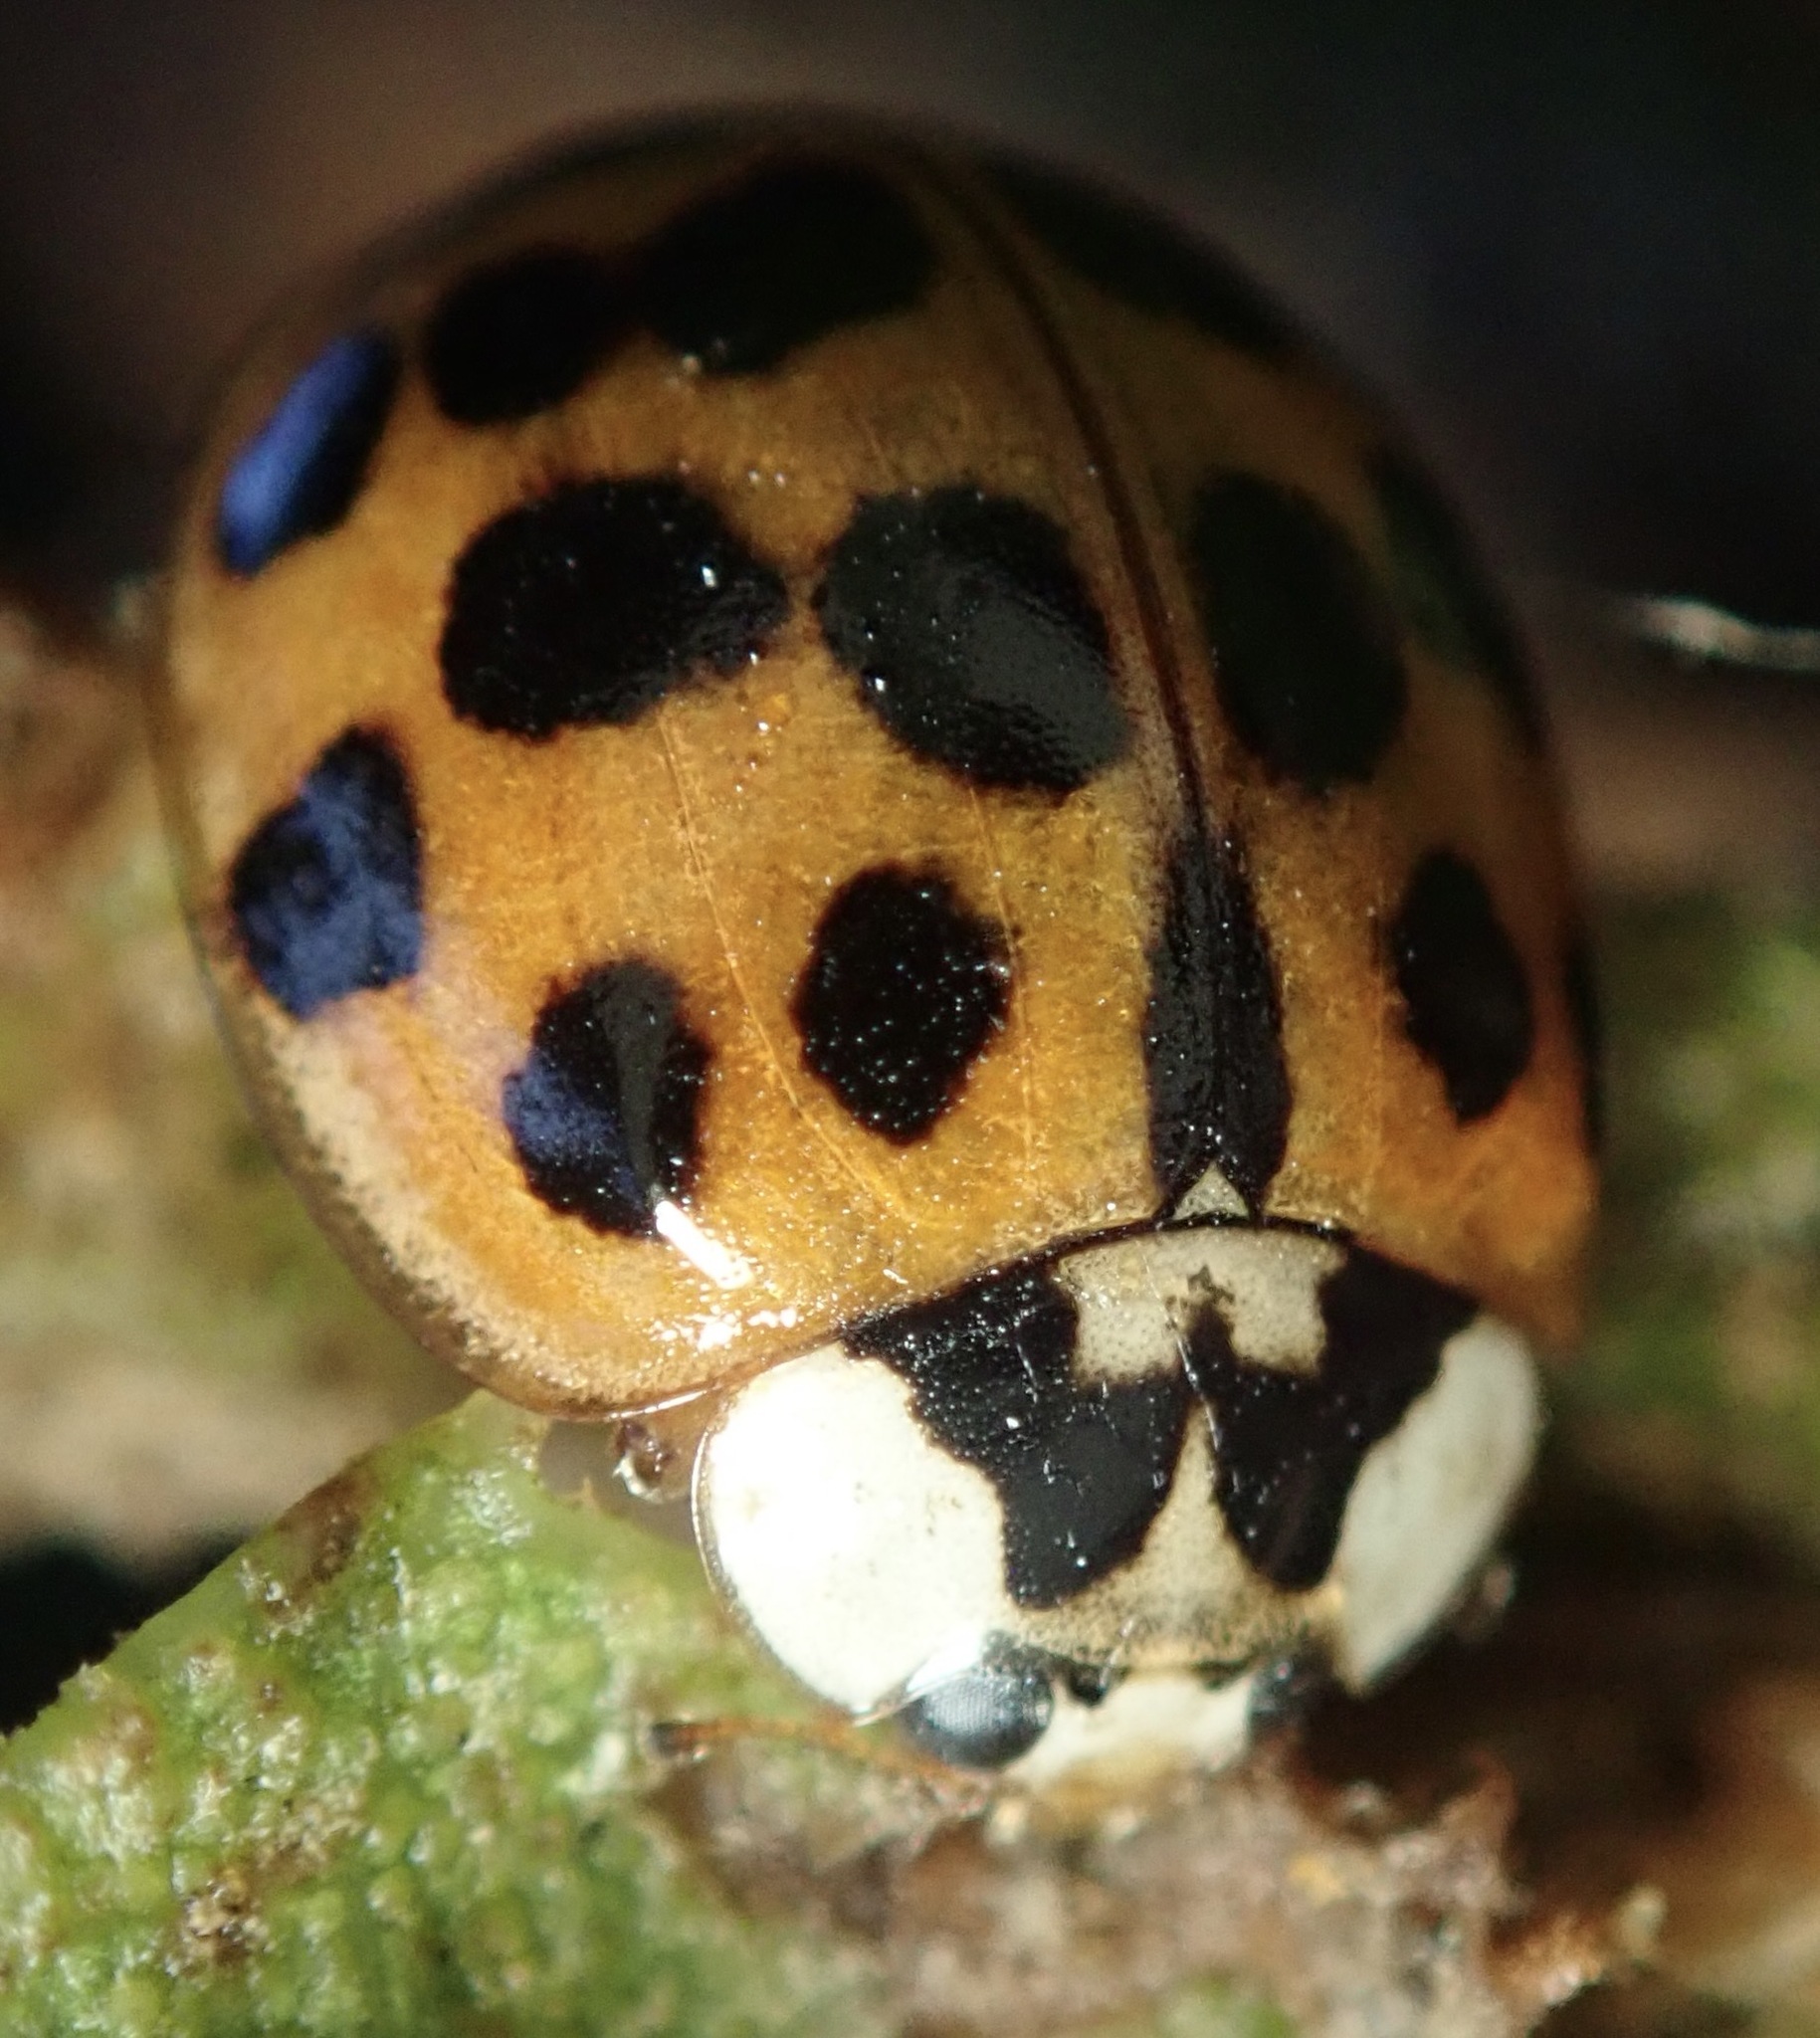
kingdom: Animalia
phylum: Arthropoda
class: Insecta
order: Coleoptera
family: Coccinellidae
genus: Harmonia
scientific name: Harmonia axyridis
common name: Harlequin ladybird
